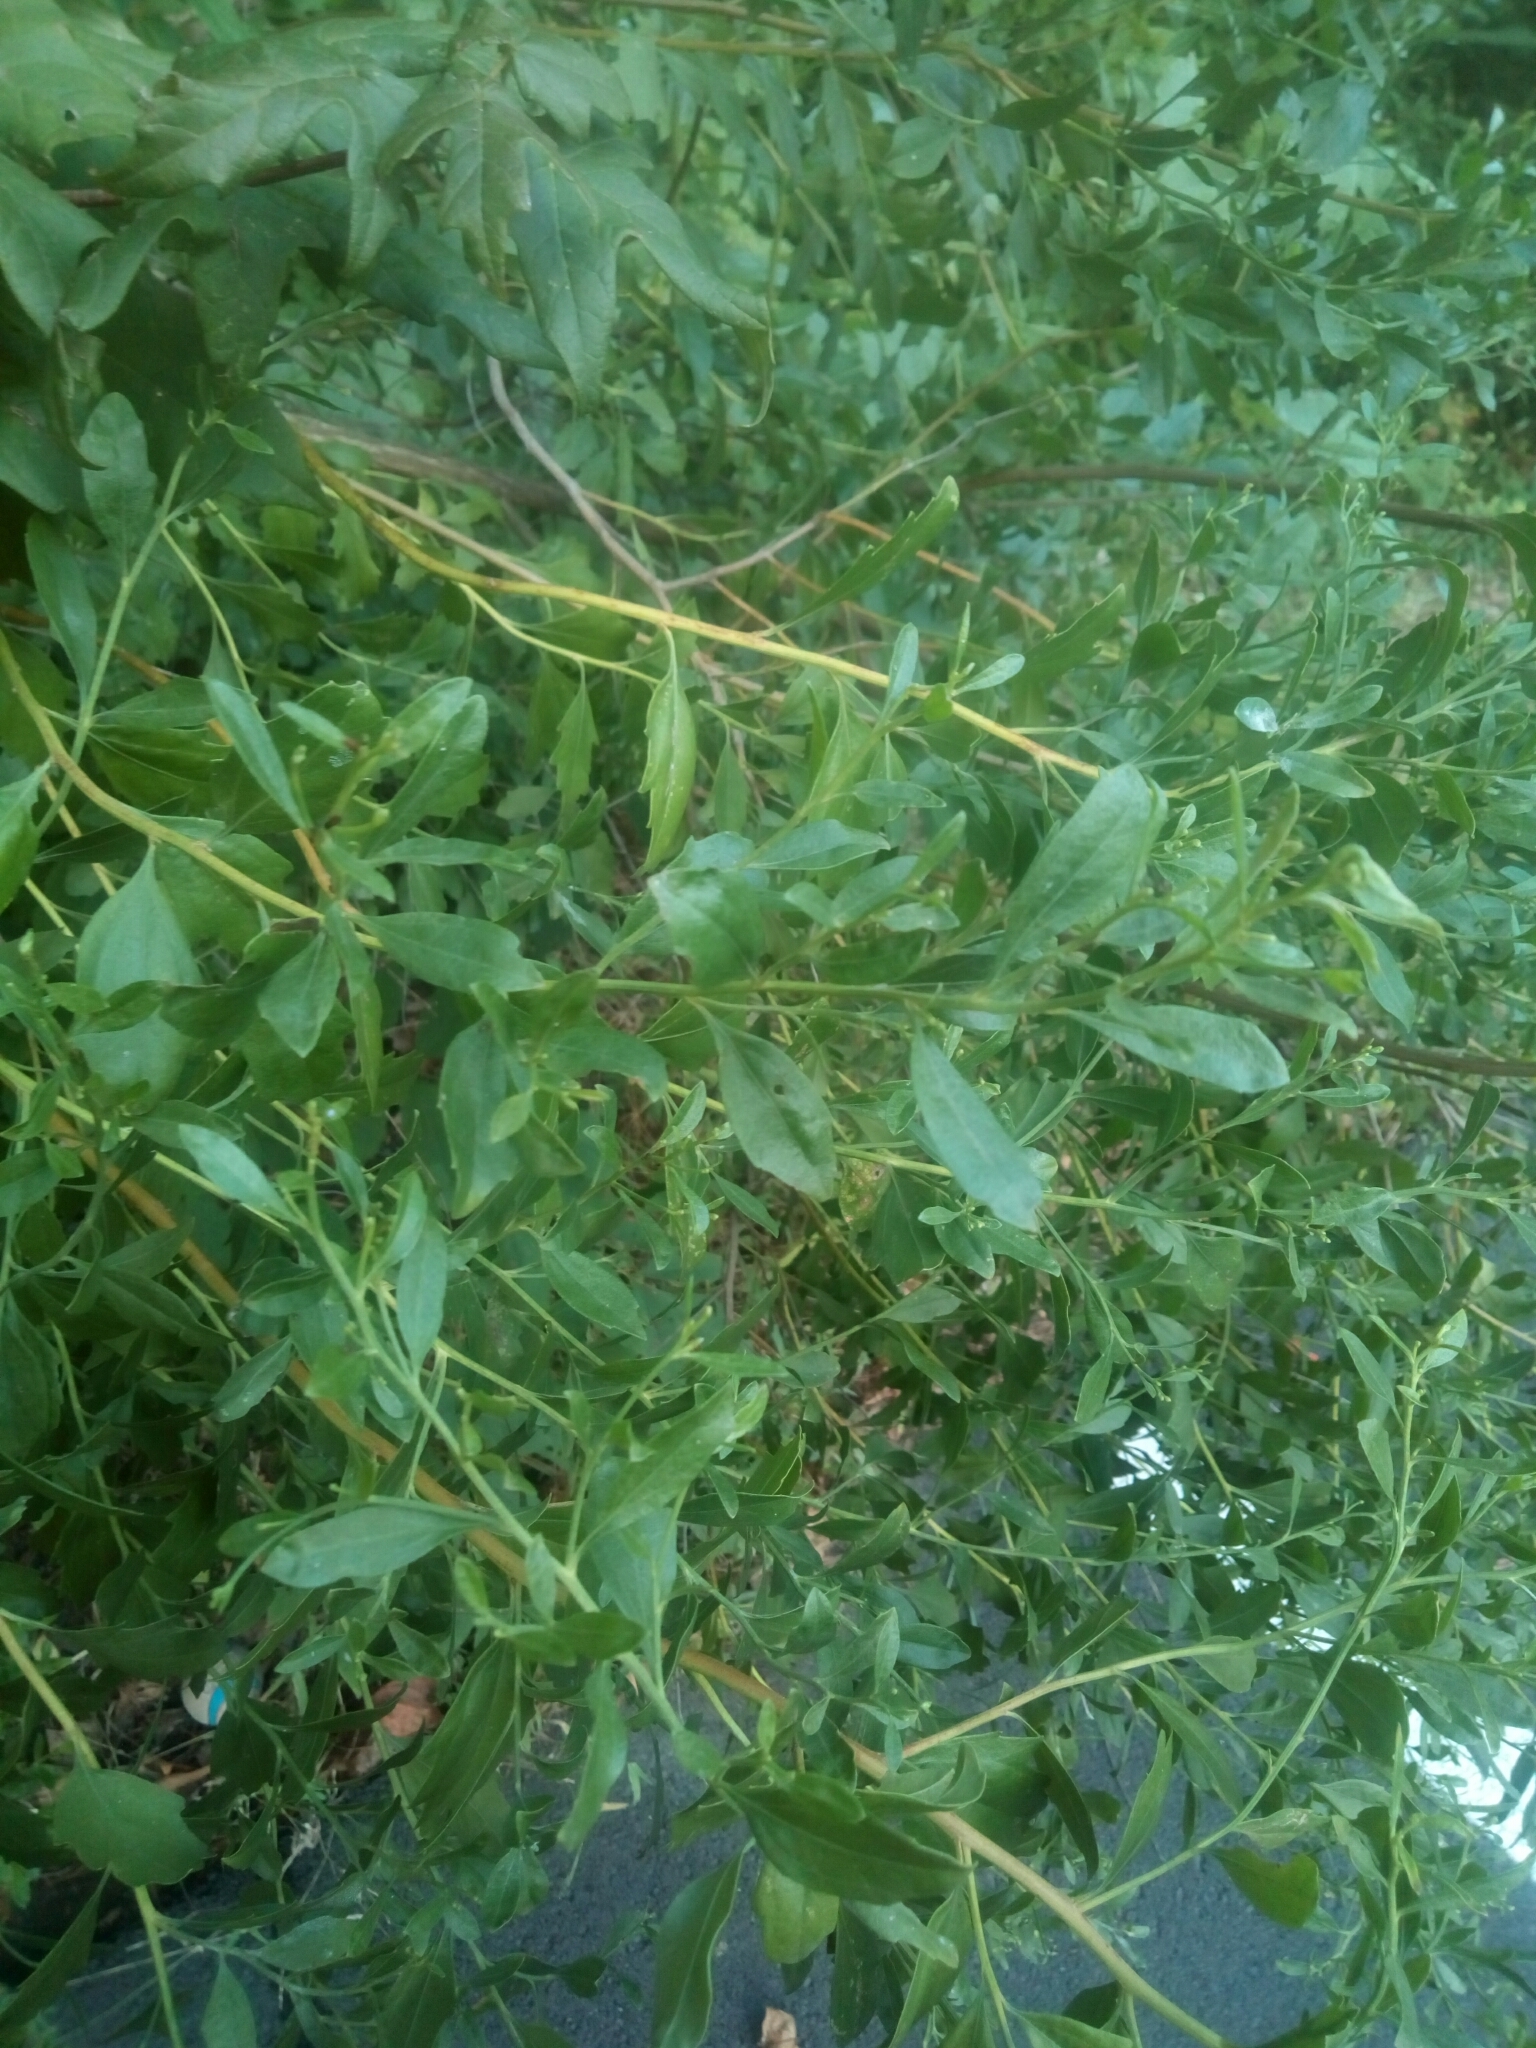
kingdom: Plantae
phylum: Tracheophyta
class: Magnoliopsida
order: Asterales
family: Asteraceae
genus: Baccharis
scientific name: Baccharis halimifolia
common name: Eastern baccharis
